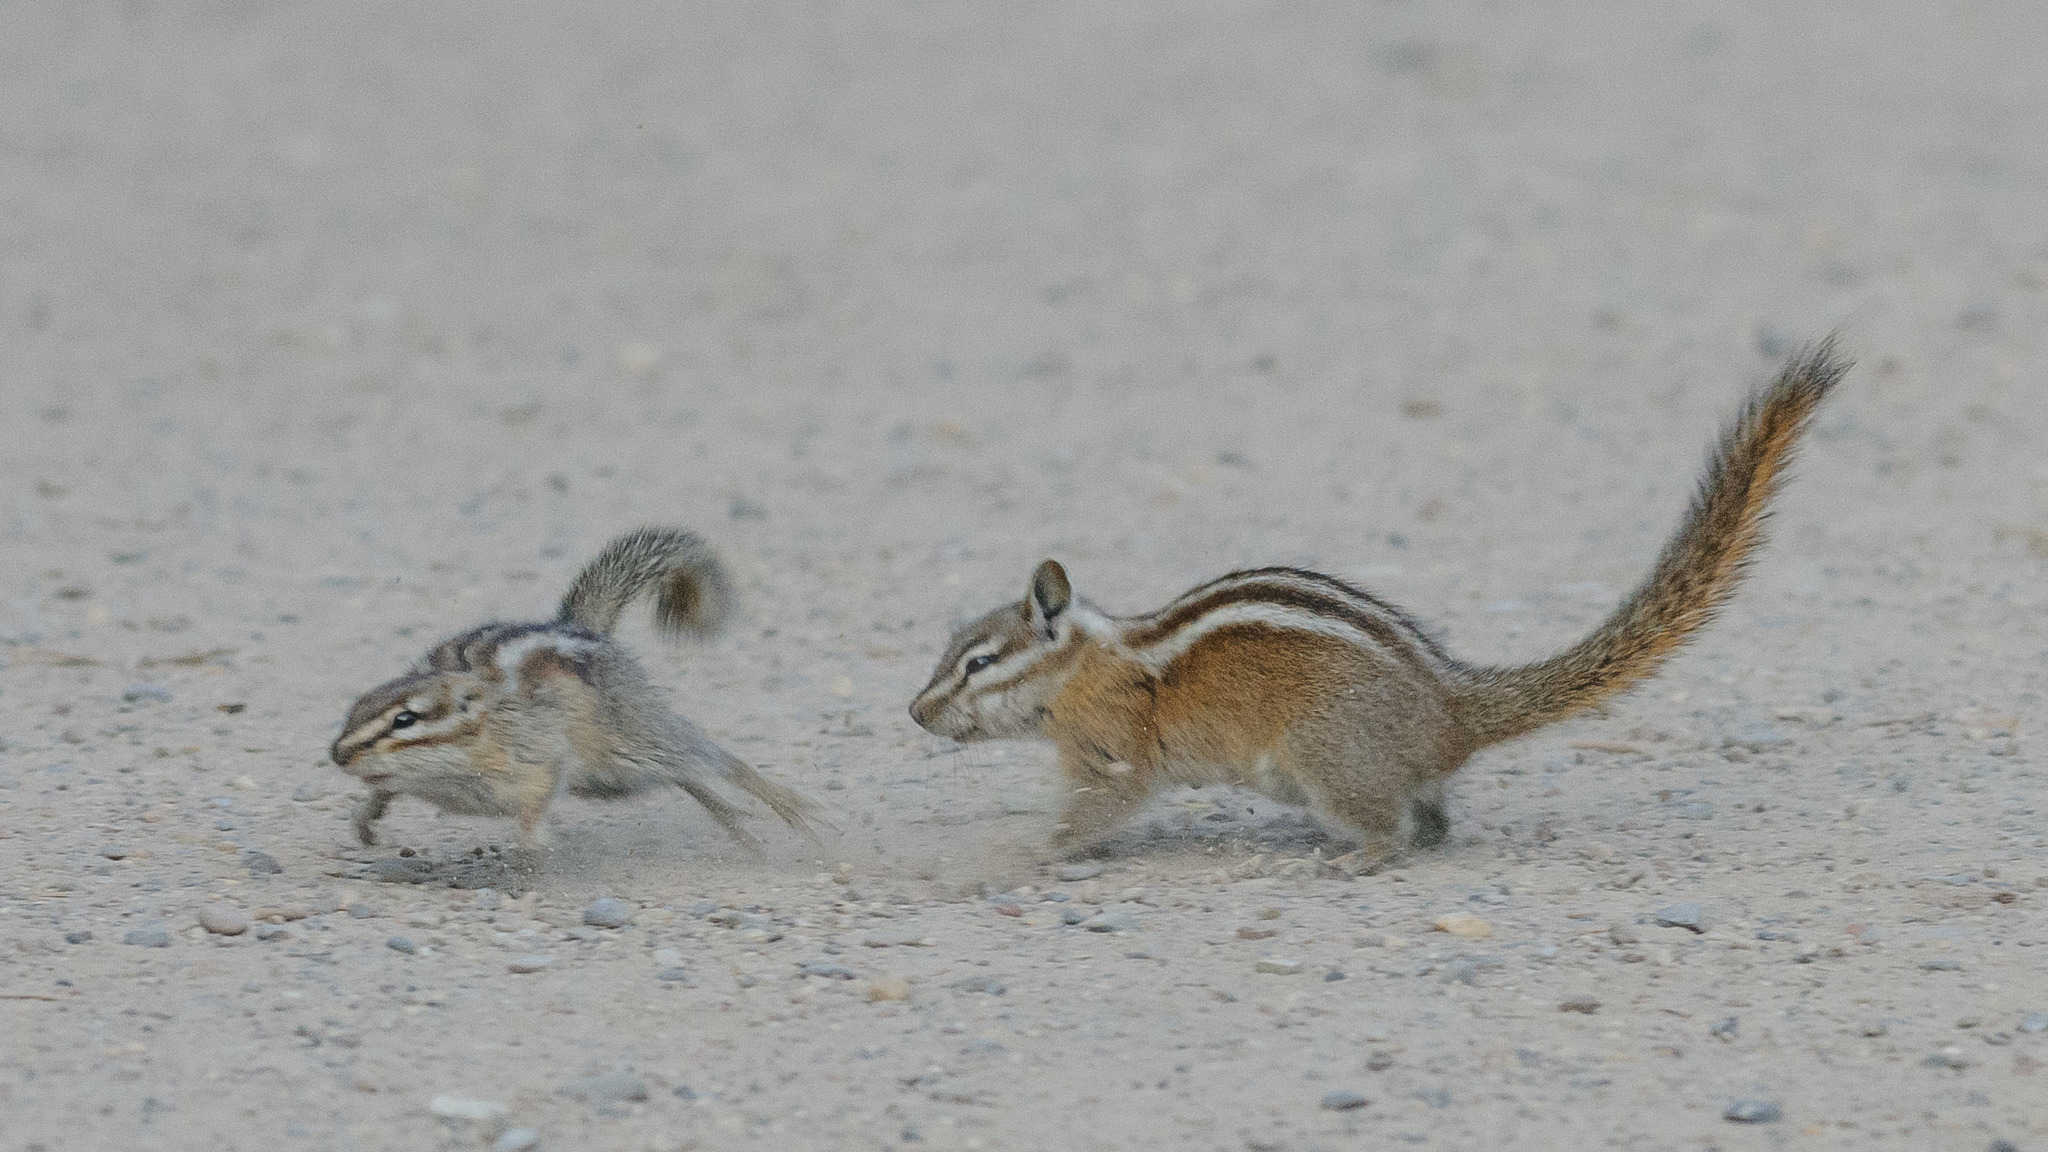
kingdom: Animalia
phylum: Chordata
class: Mammalia
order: Rodentia
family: Sciuridae
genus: Tamias
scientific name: Tamias minimus
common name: Least chipmunk
